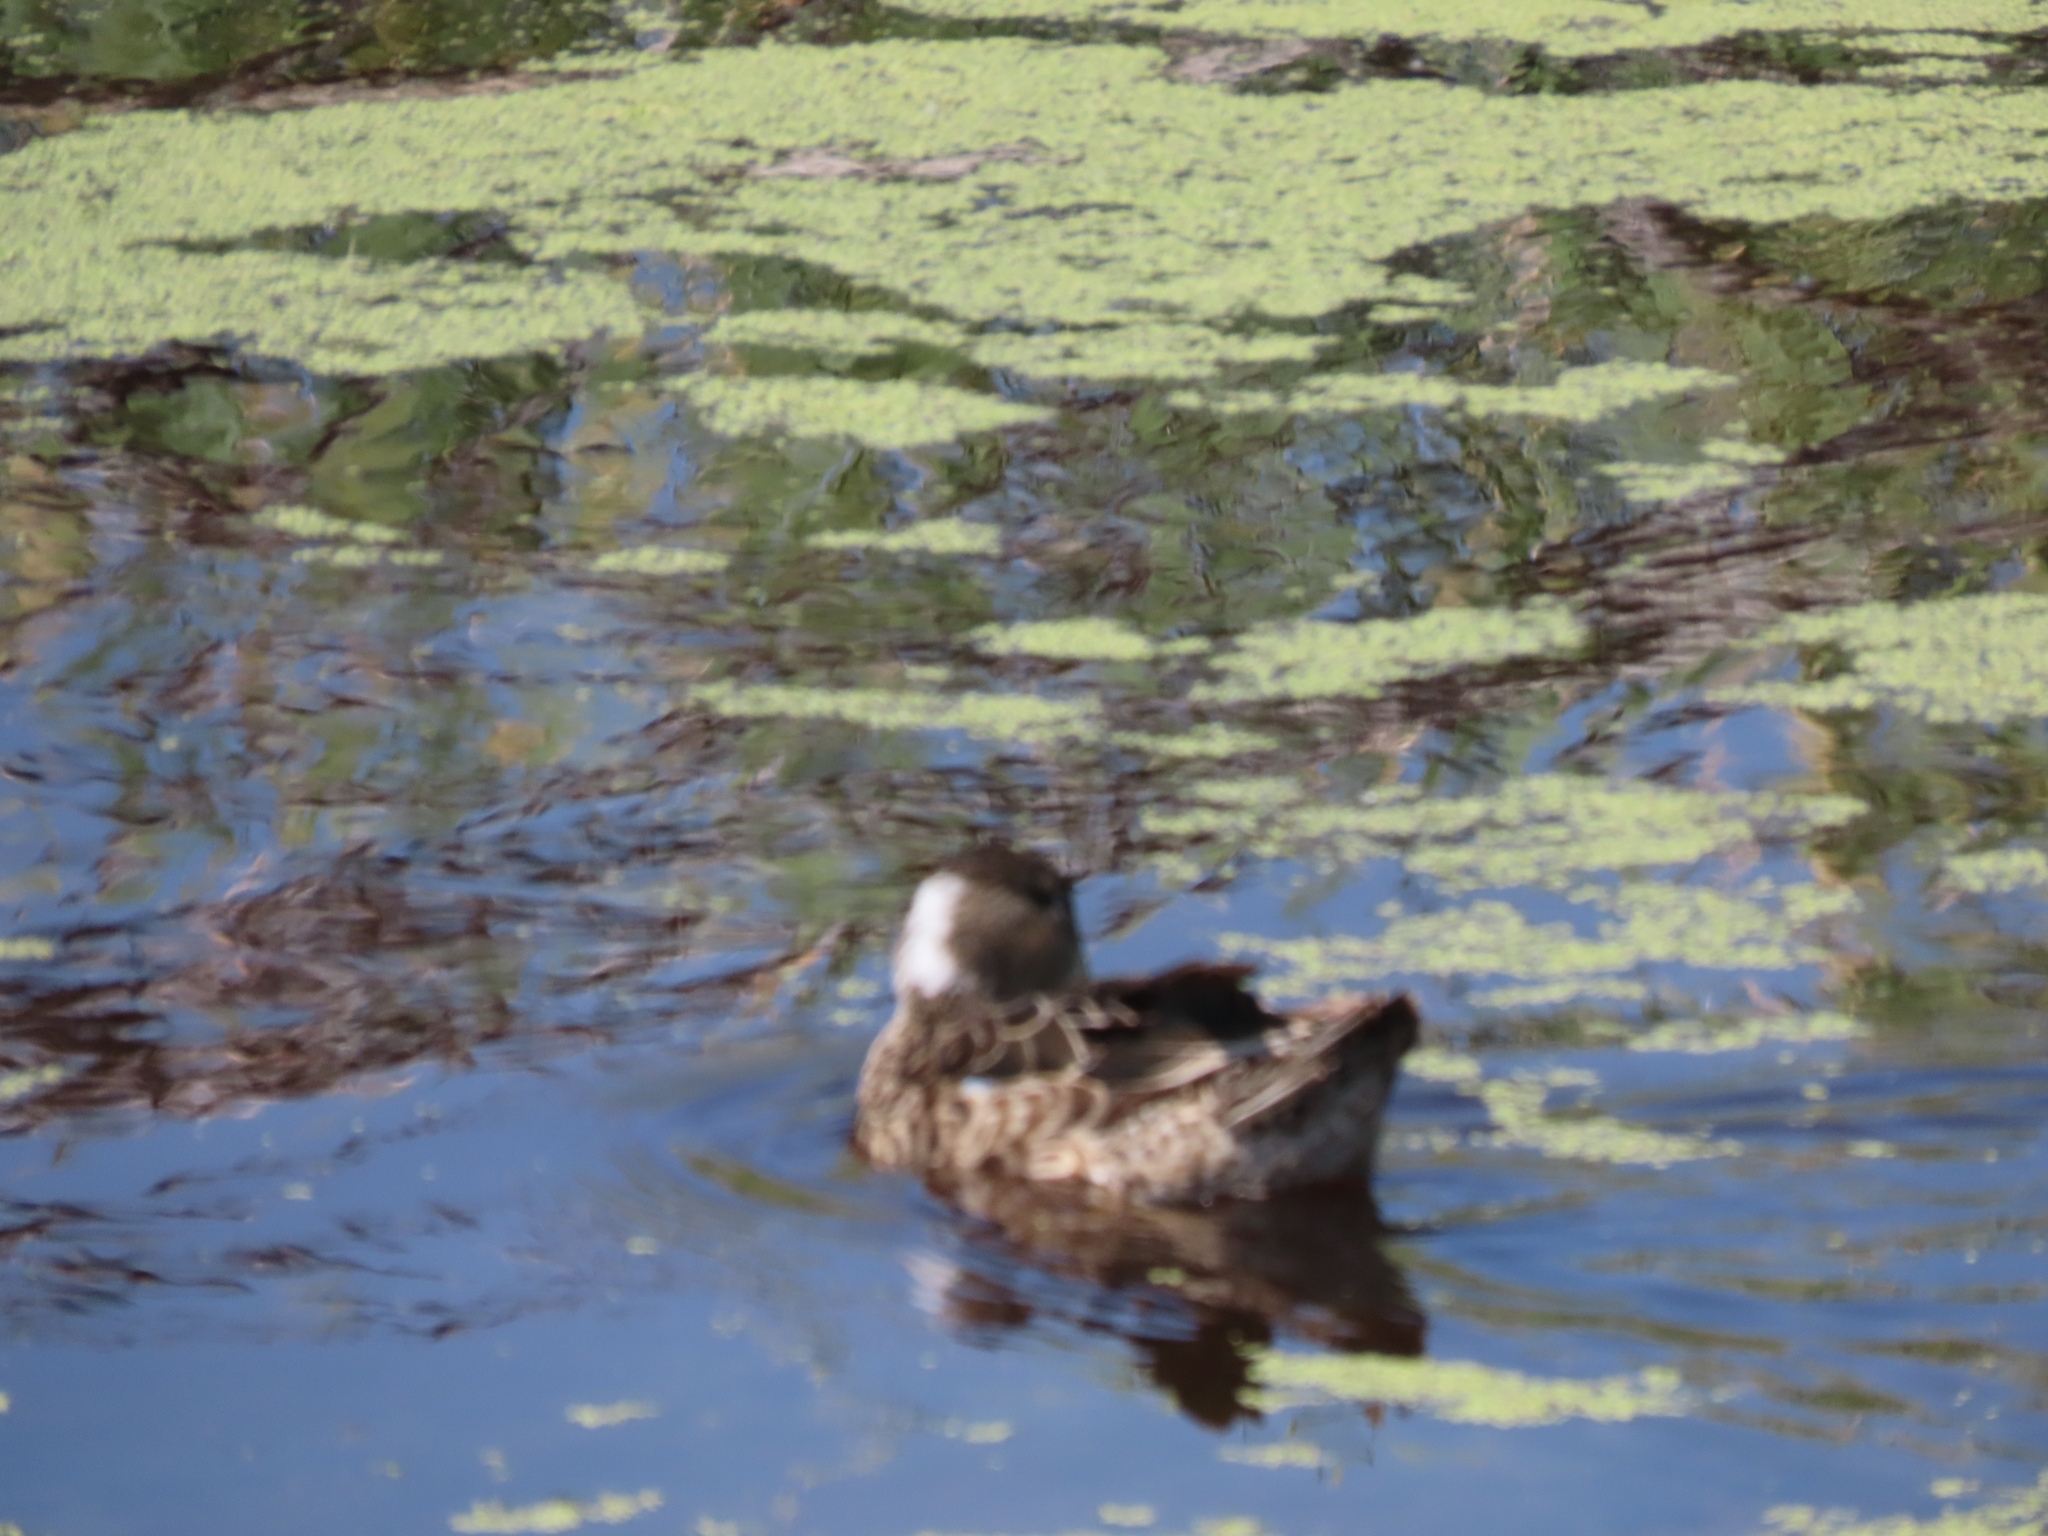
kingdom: Animalia
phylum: Chordata
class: Aves
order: Anseriformes
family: Anatidae
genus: Spatula
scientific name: Spatula discors
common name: Blue-winged teal
